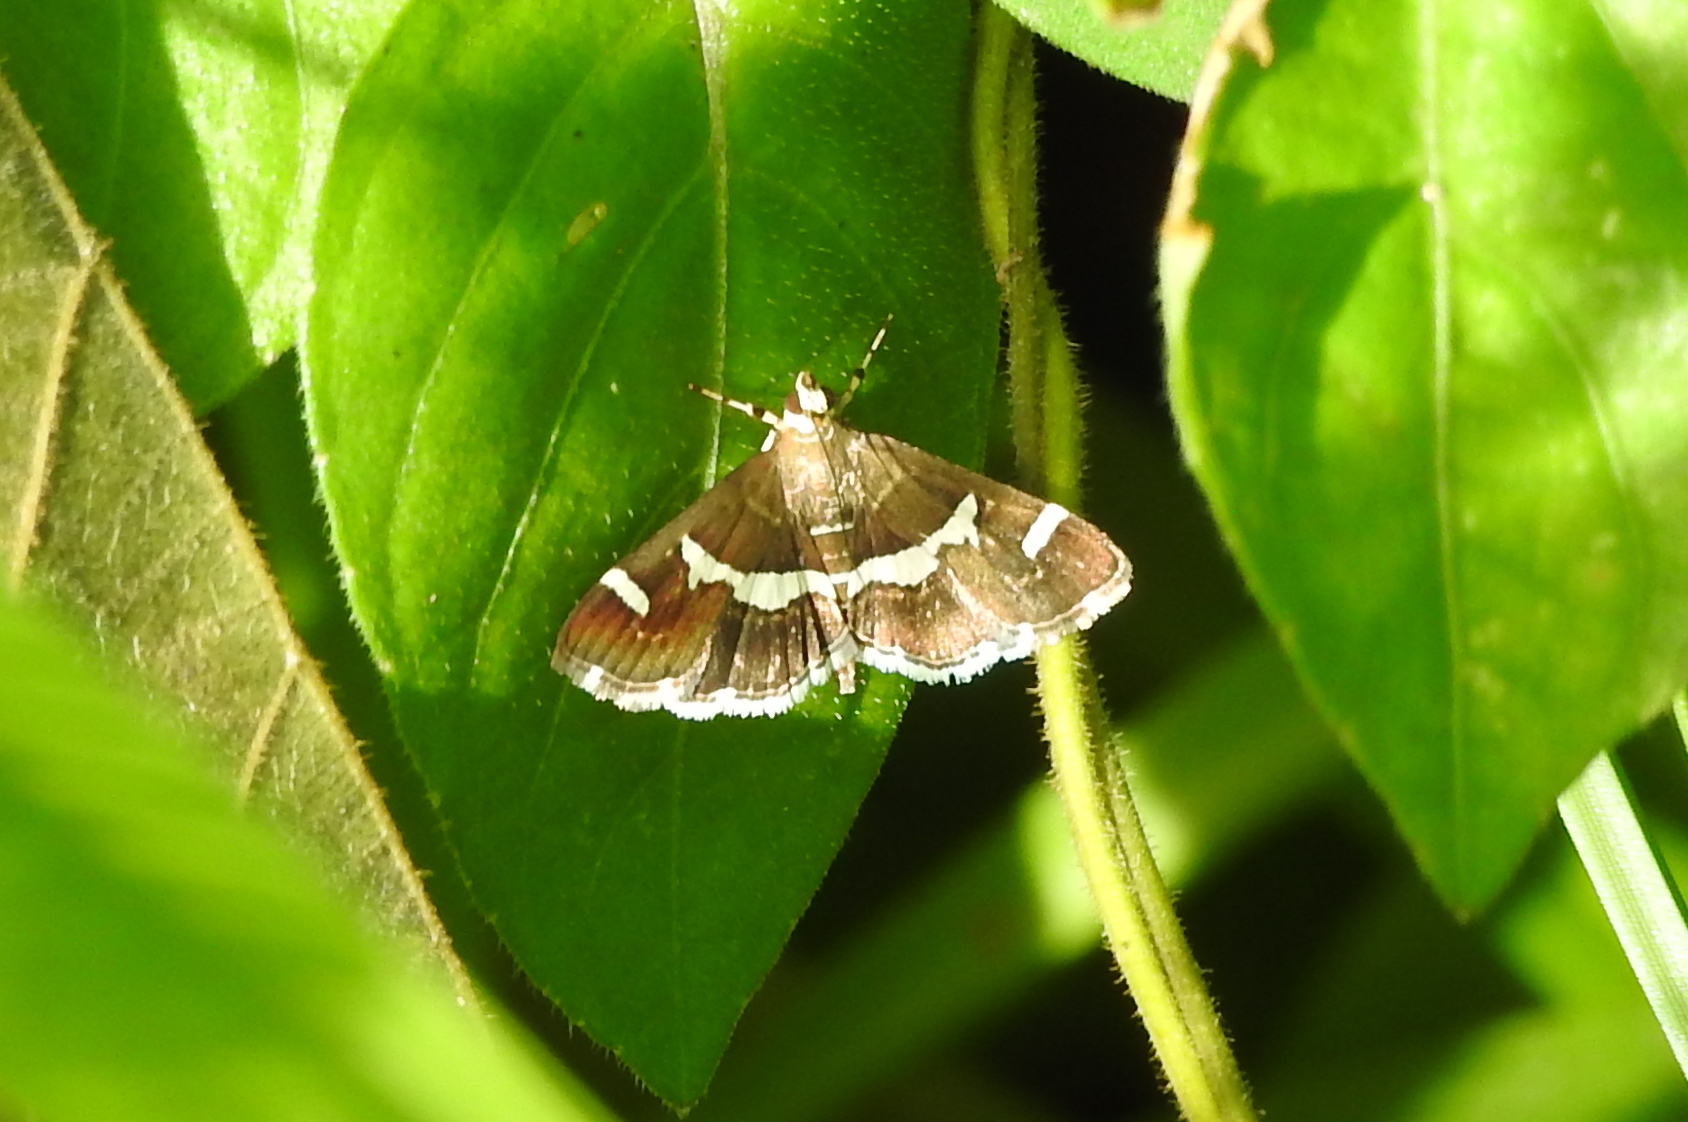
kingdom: Animalia
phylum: Arthropoda
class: Insecta
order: Lepidoptera
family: Crambidae
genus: Spoladea
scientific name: Spoladea recurvalis
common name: Beet webworm moth
